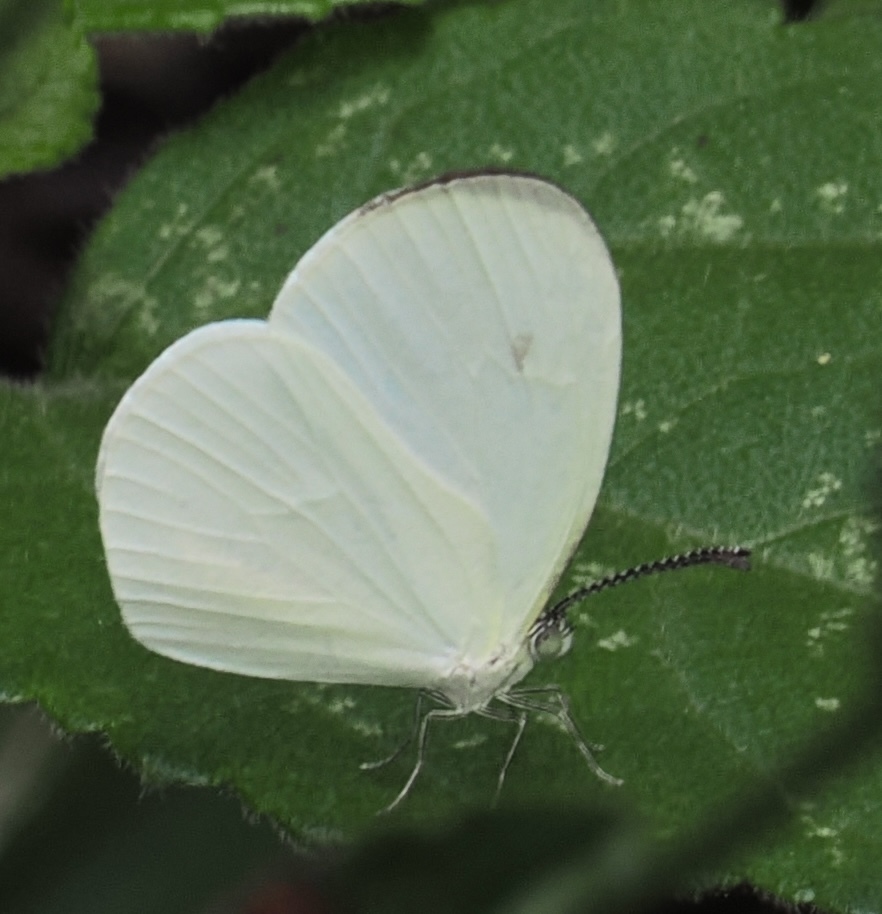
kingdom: Animalia
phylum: Arthropoda
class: Insecta
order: Lepidoptera
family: Pieridae
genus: Leucidia
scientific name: Leucidia elvina
